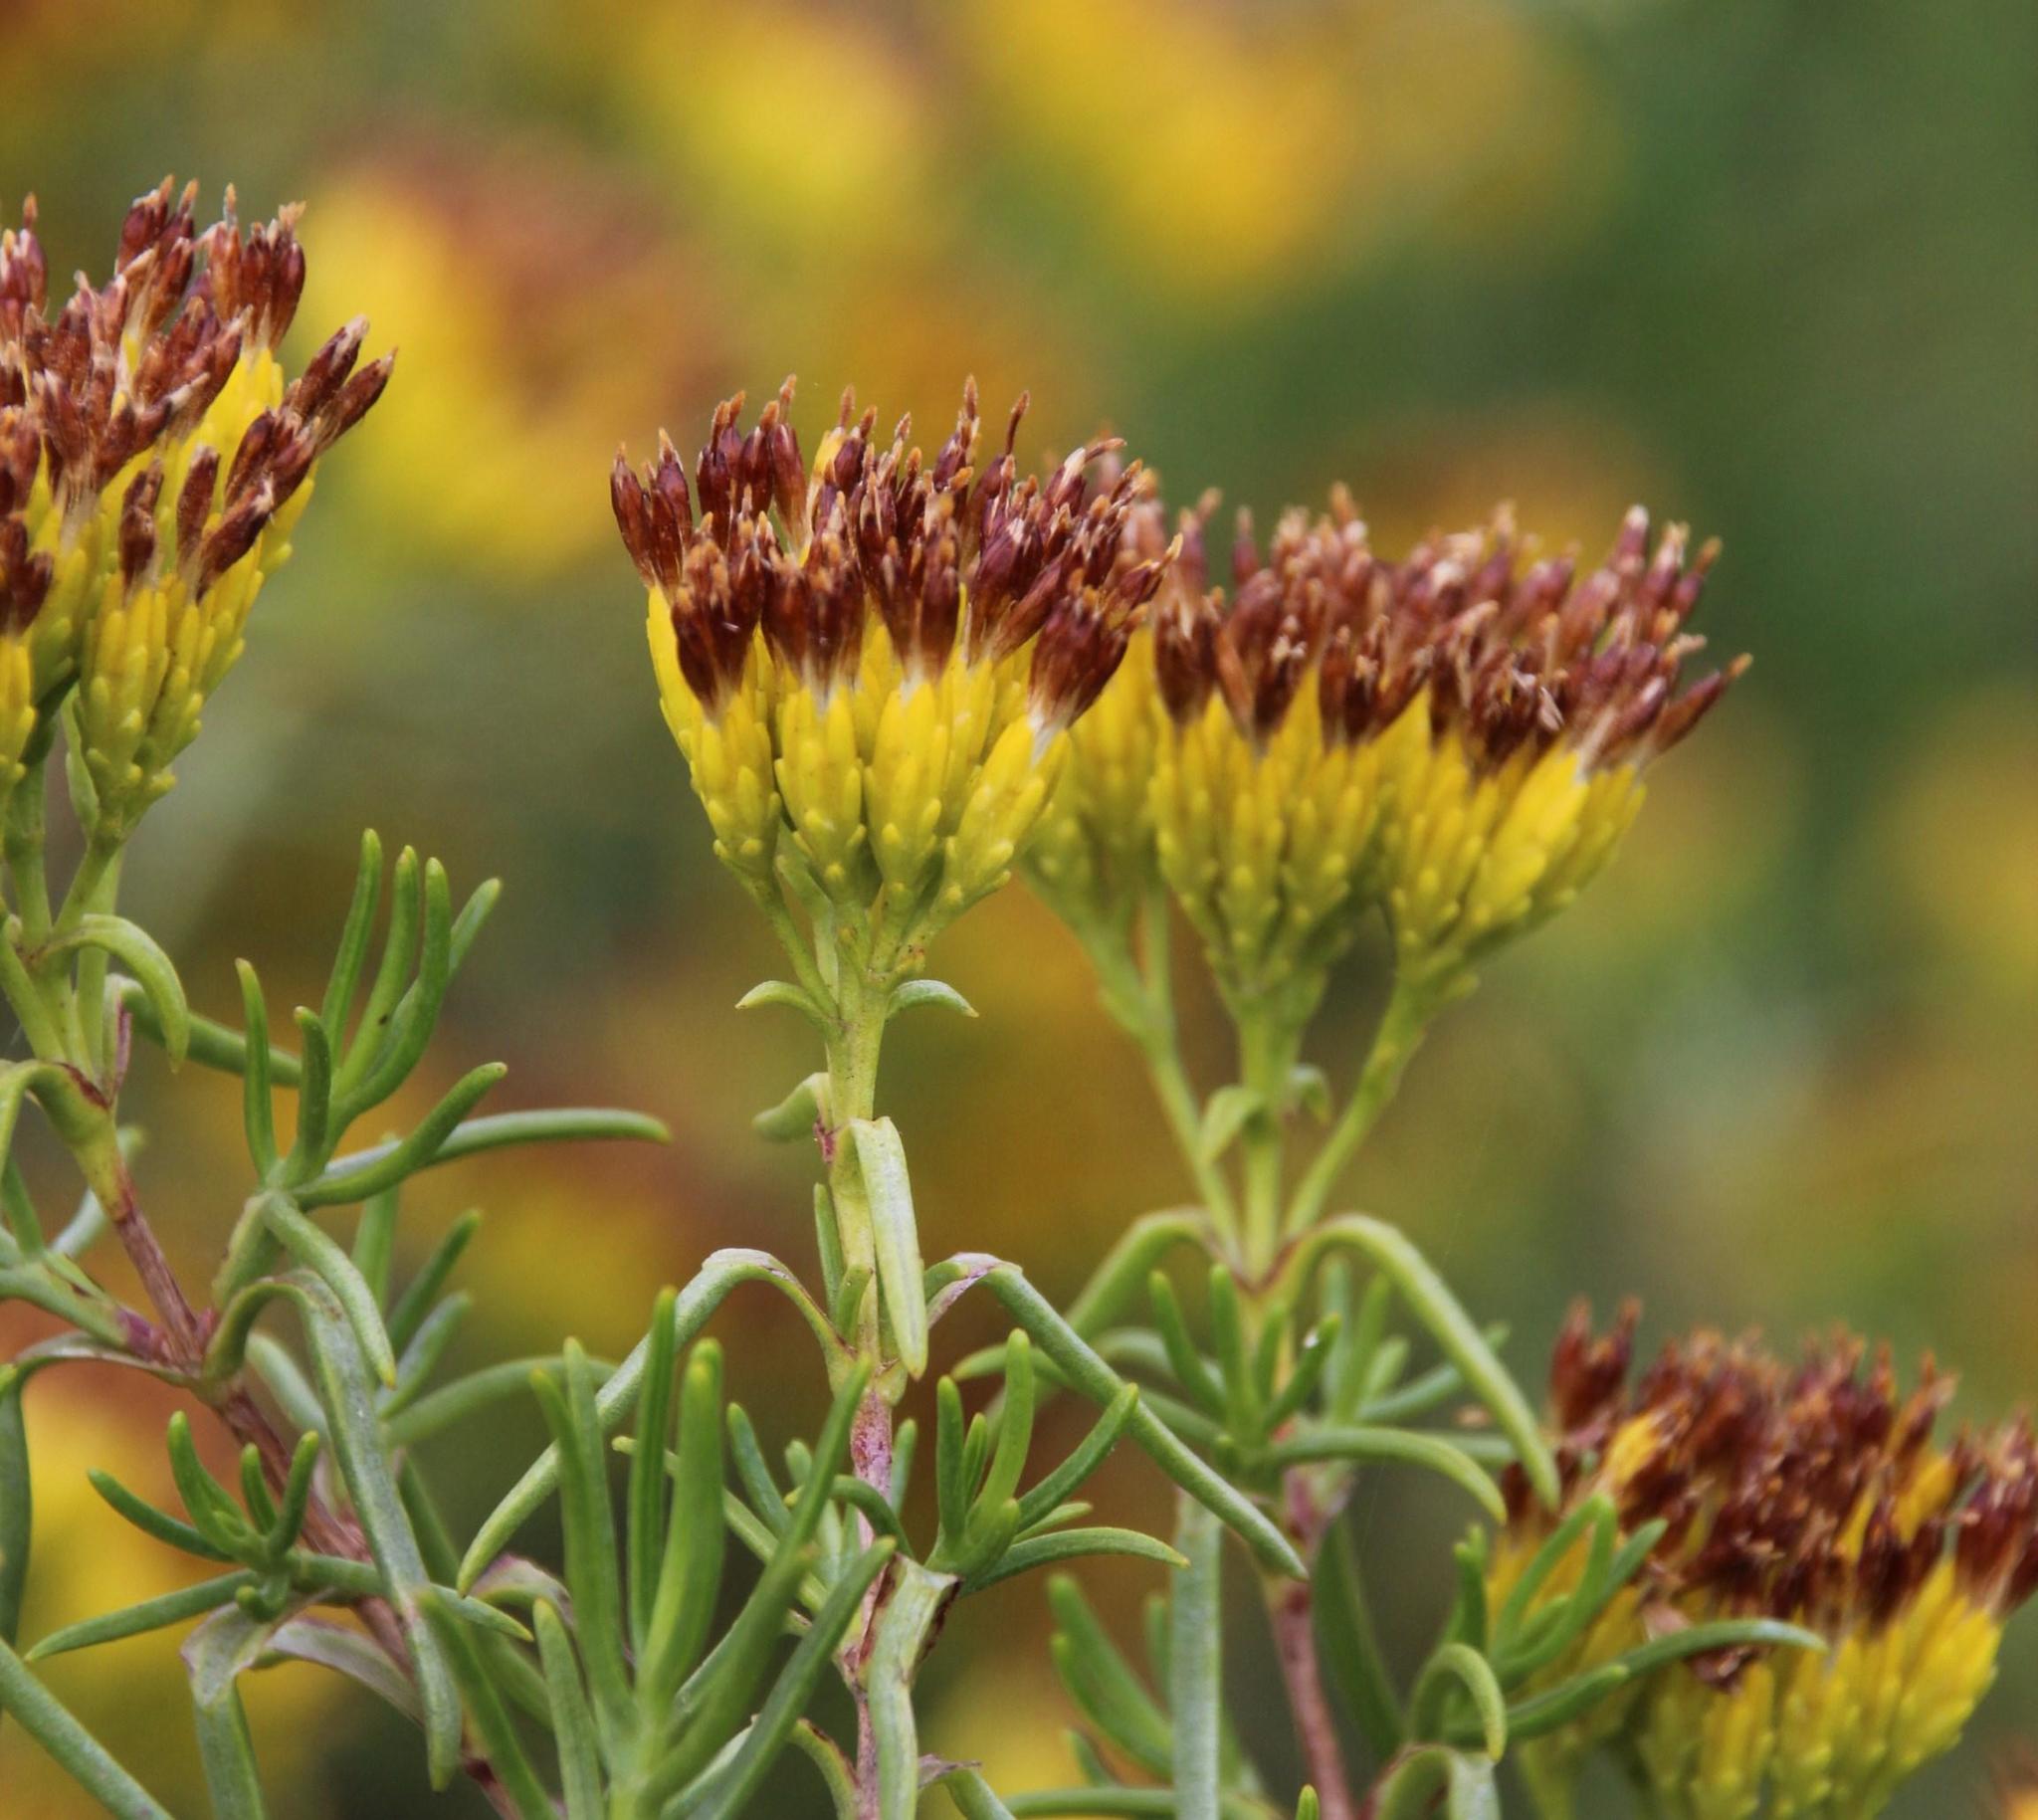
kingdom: Plantae
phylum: Tracheophyta
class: Magnoliopsida
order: Asterales
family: Asteraceae
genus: Pteronia
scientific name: Pteronia paniculata
